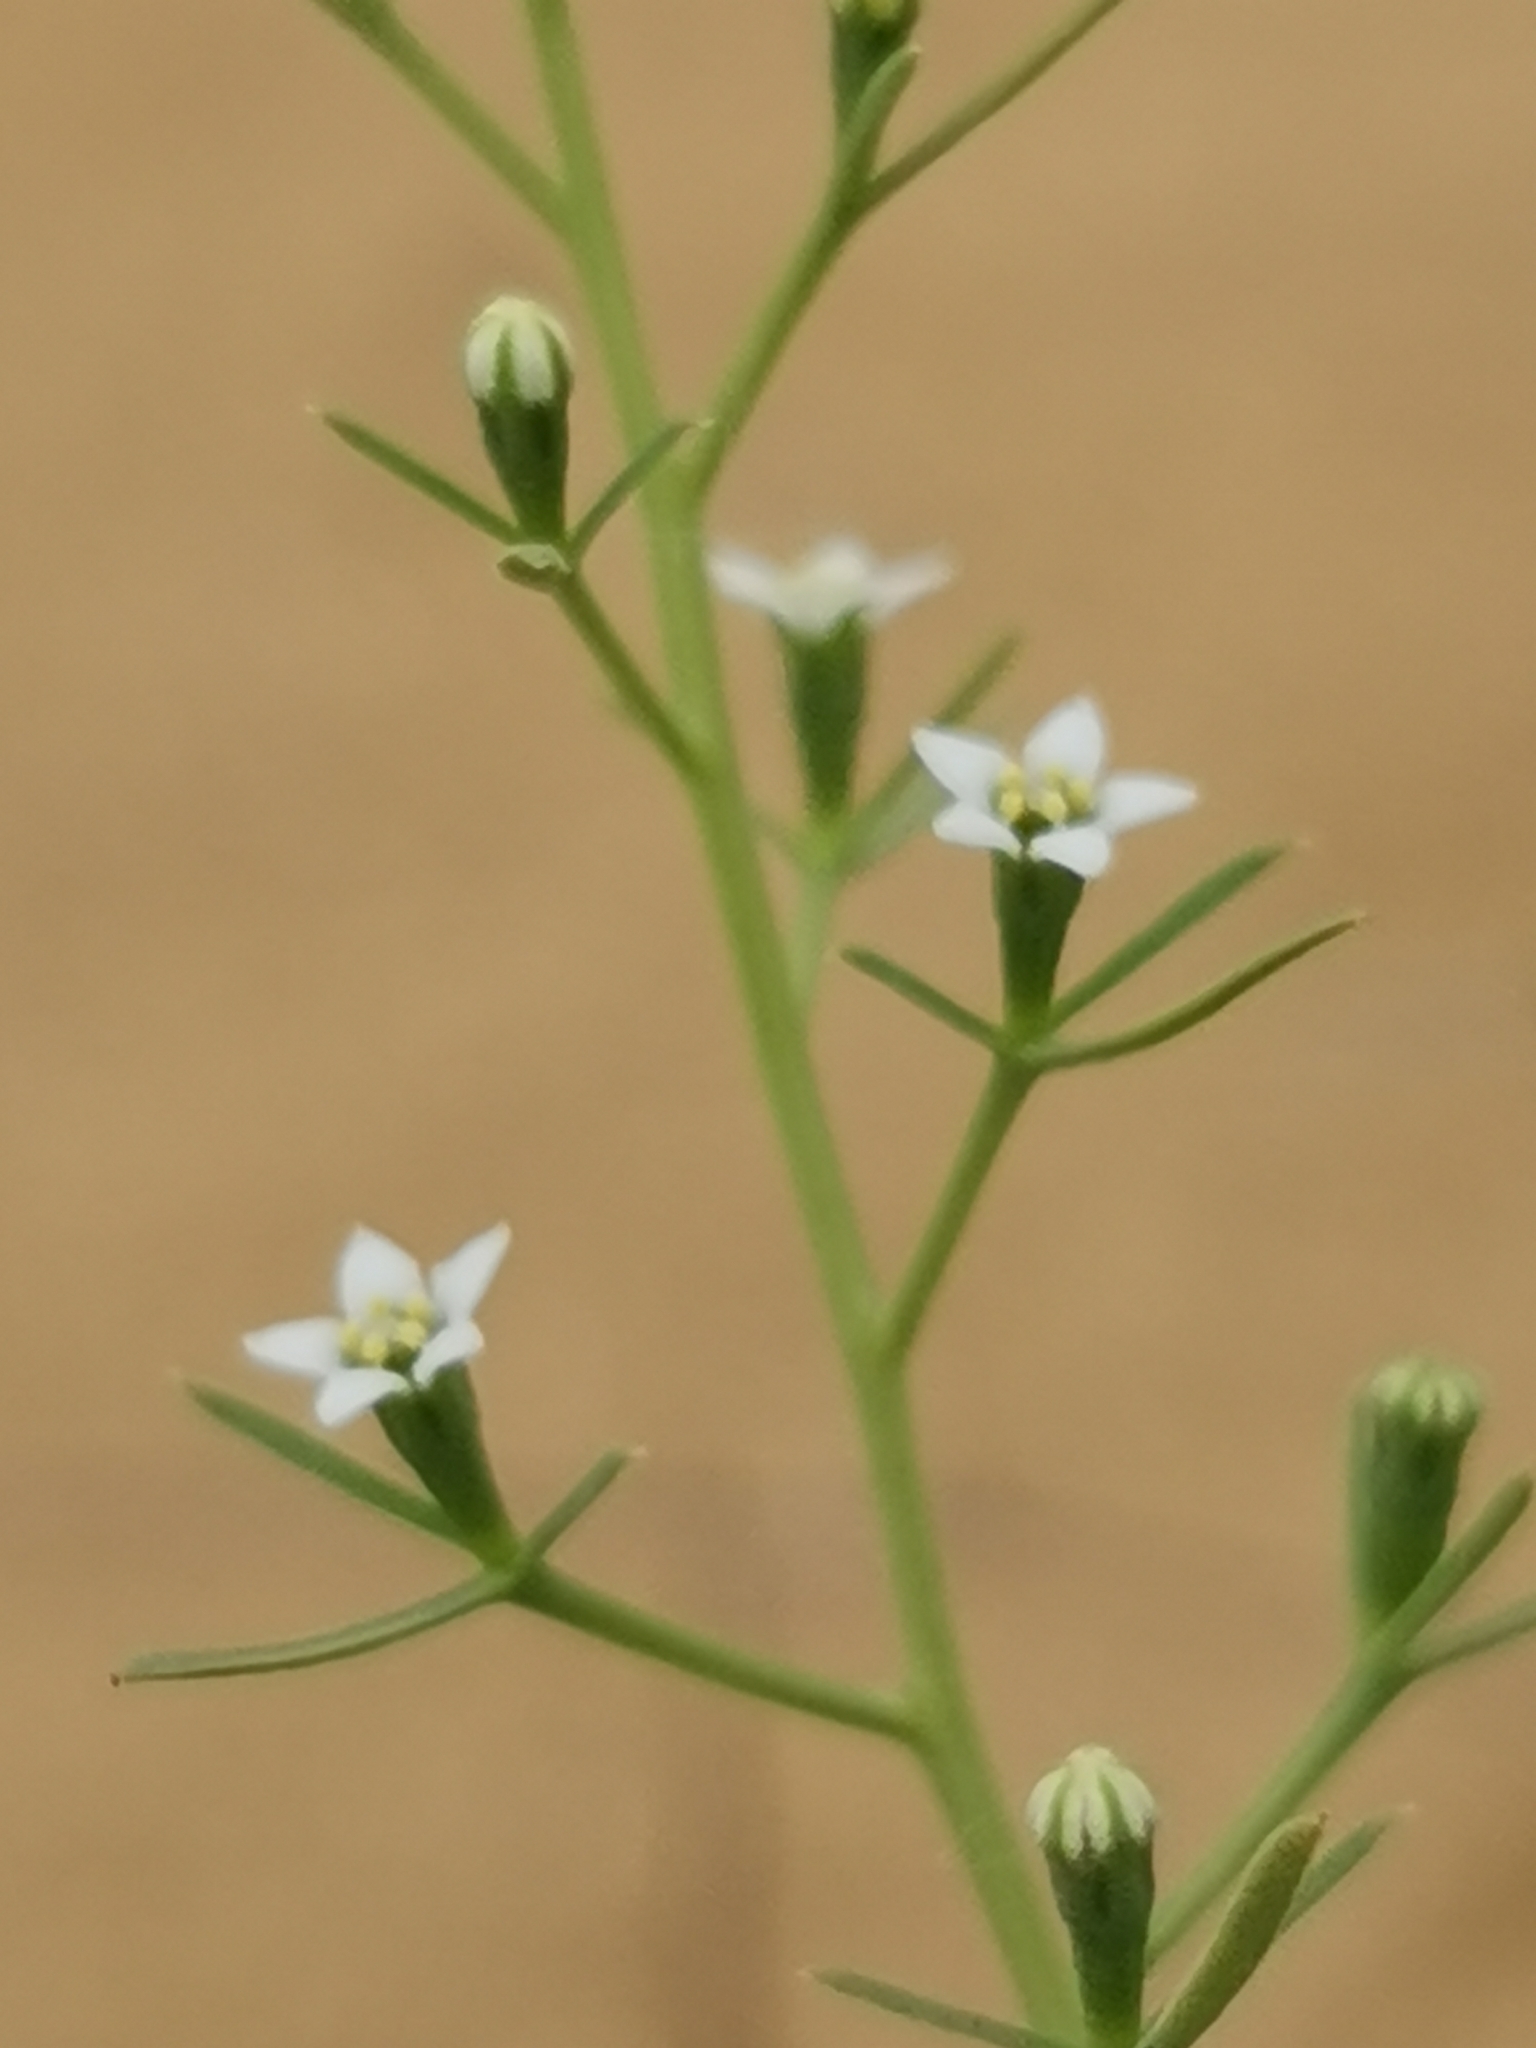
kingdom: Plantae
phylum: Tracheophyta
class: Magnoliopsida
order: Santalales
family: Thesiaceae
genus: Thesium
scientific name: Thesium ramosum
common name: Field thesium
